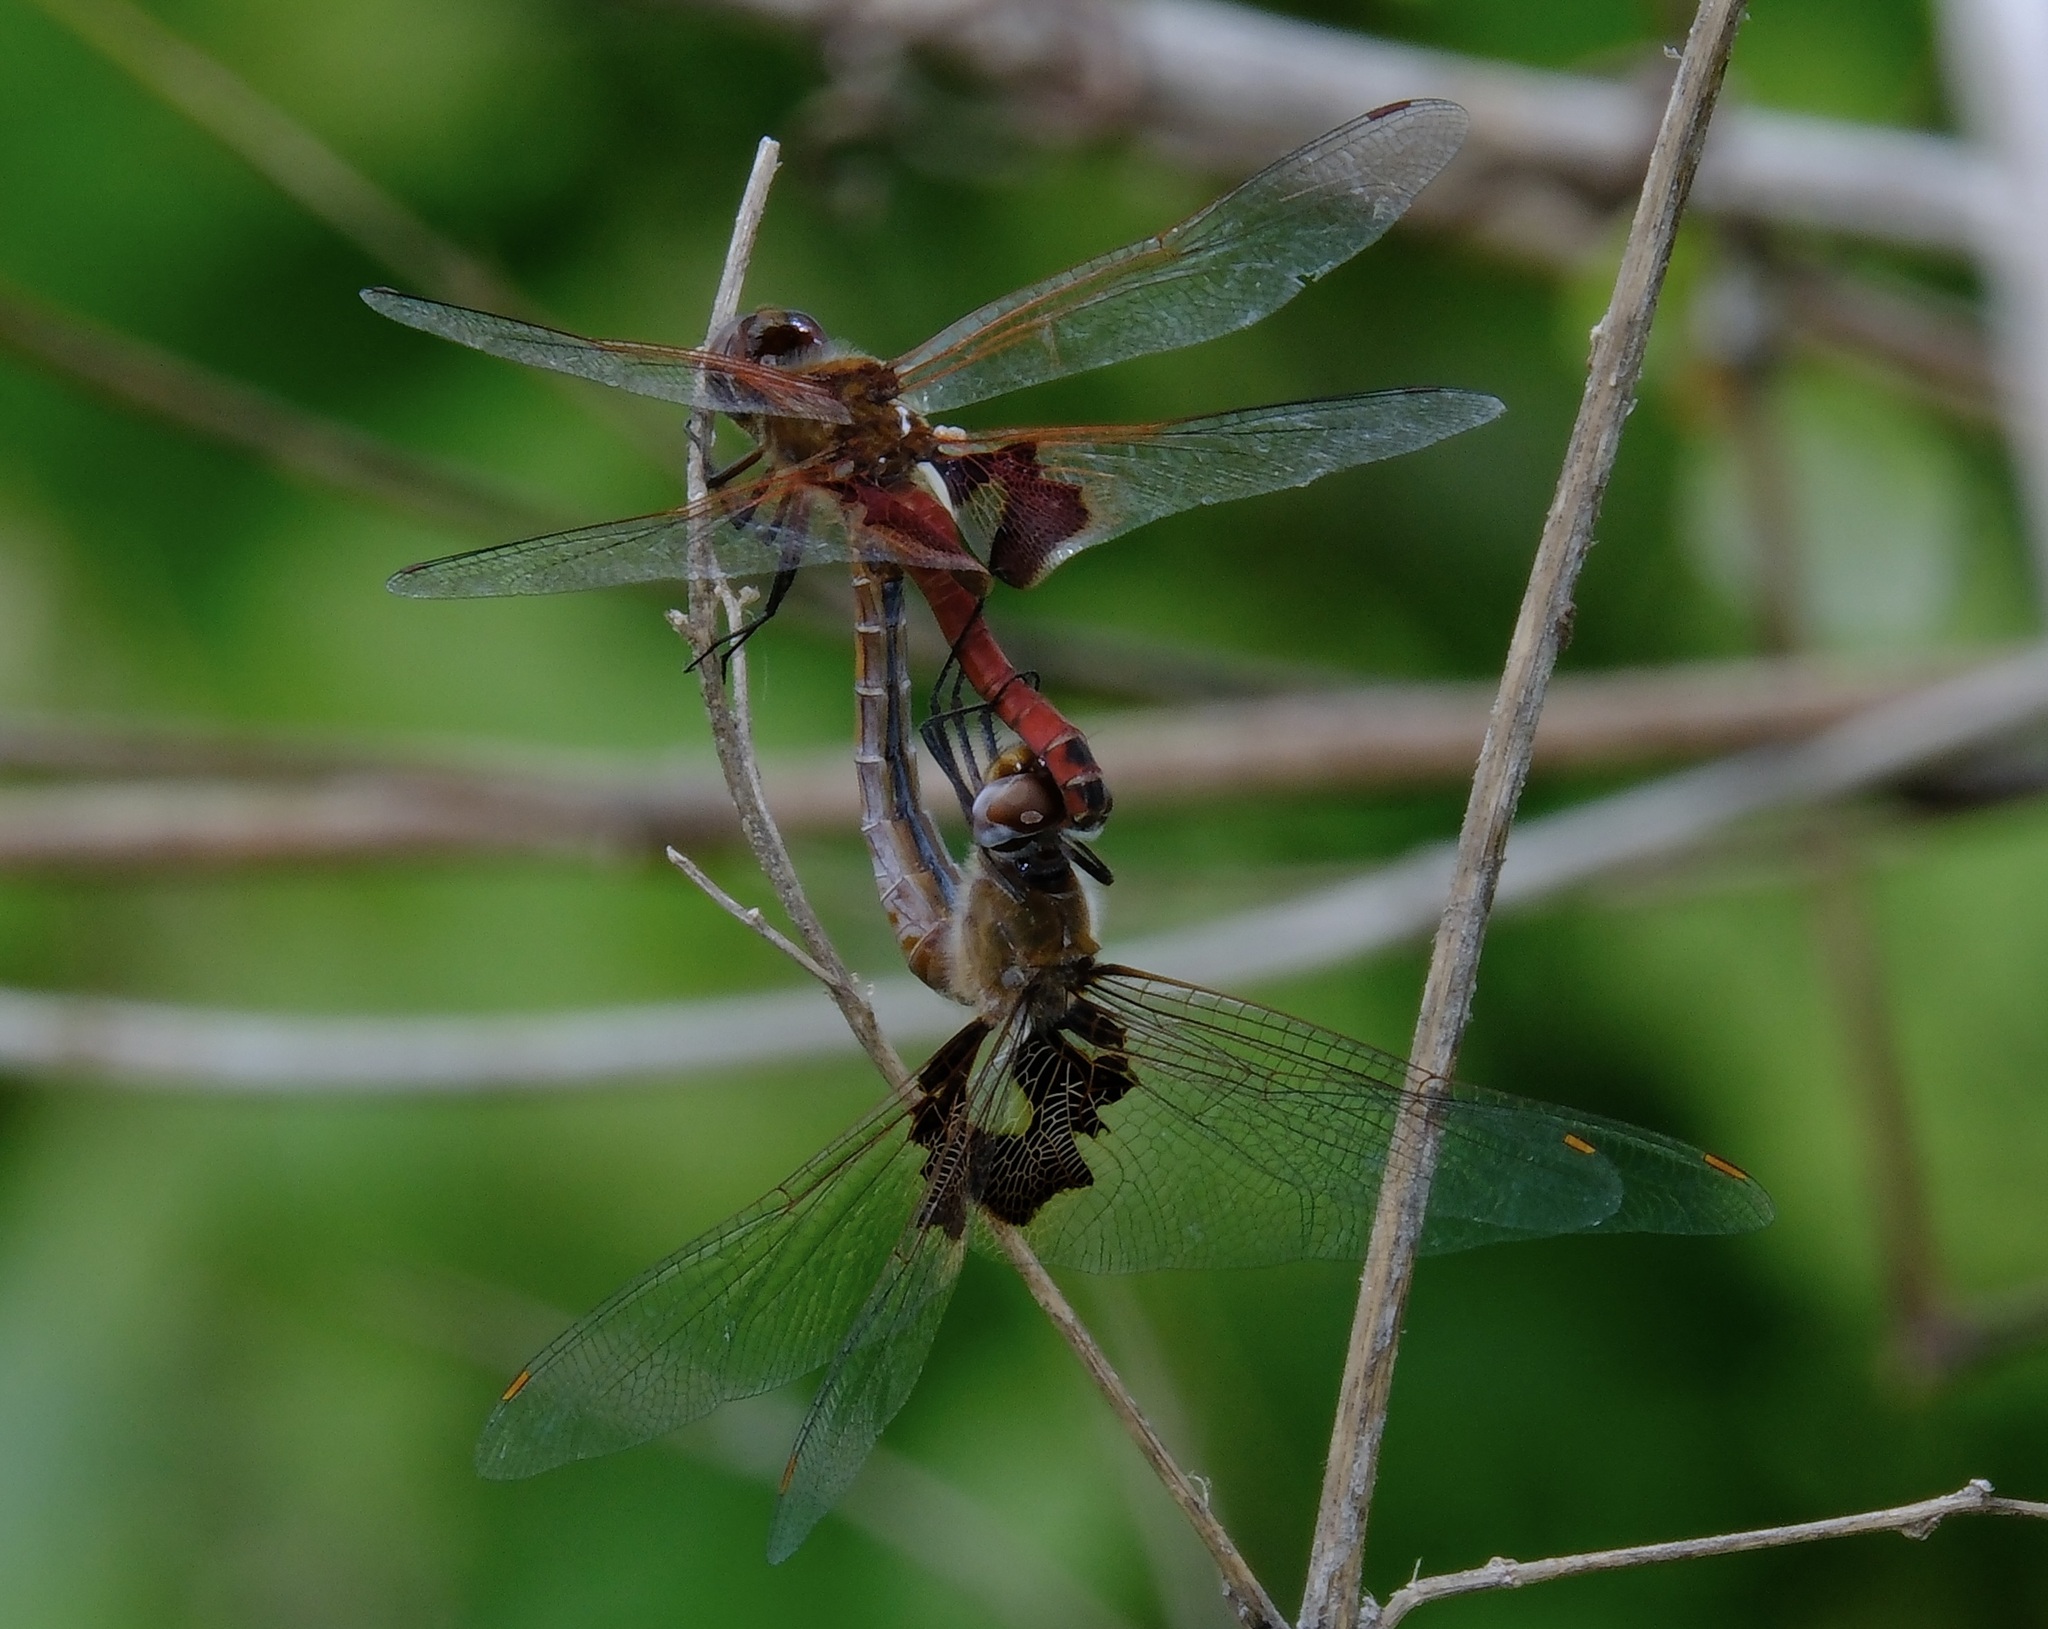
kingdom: Animalia
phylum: Arthropoda
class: Insecta
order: Odonata
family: Libellulidae
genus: Tramea
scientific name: Tramea onusta
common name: Red saddlebags
